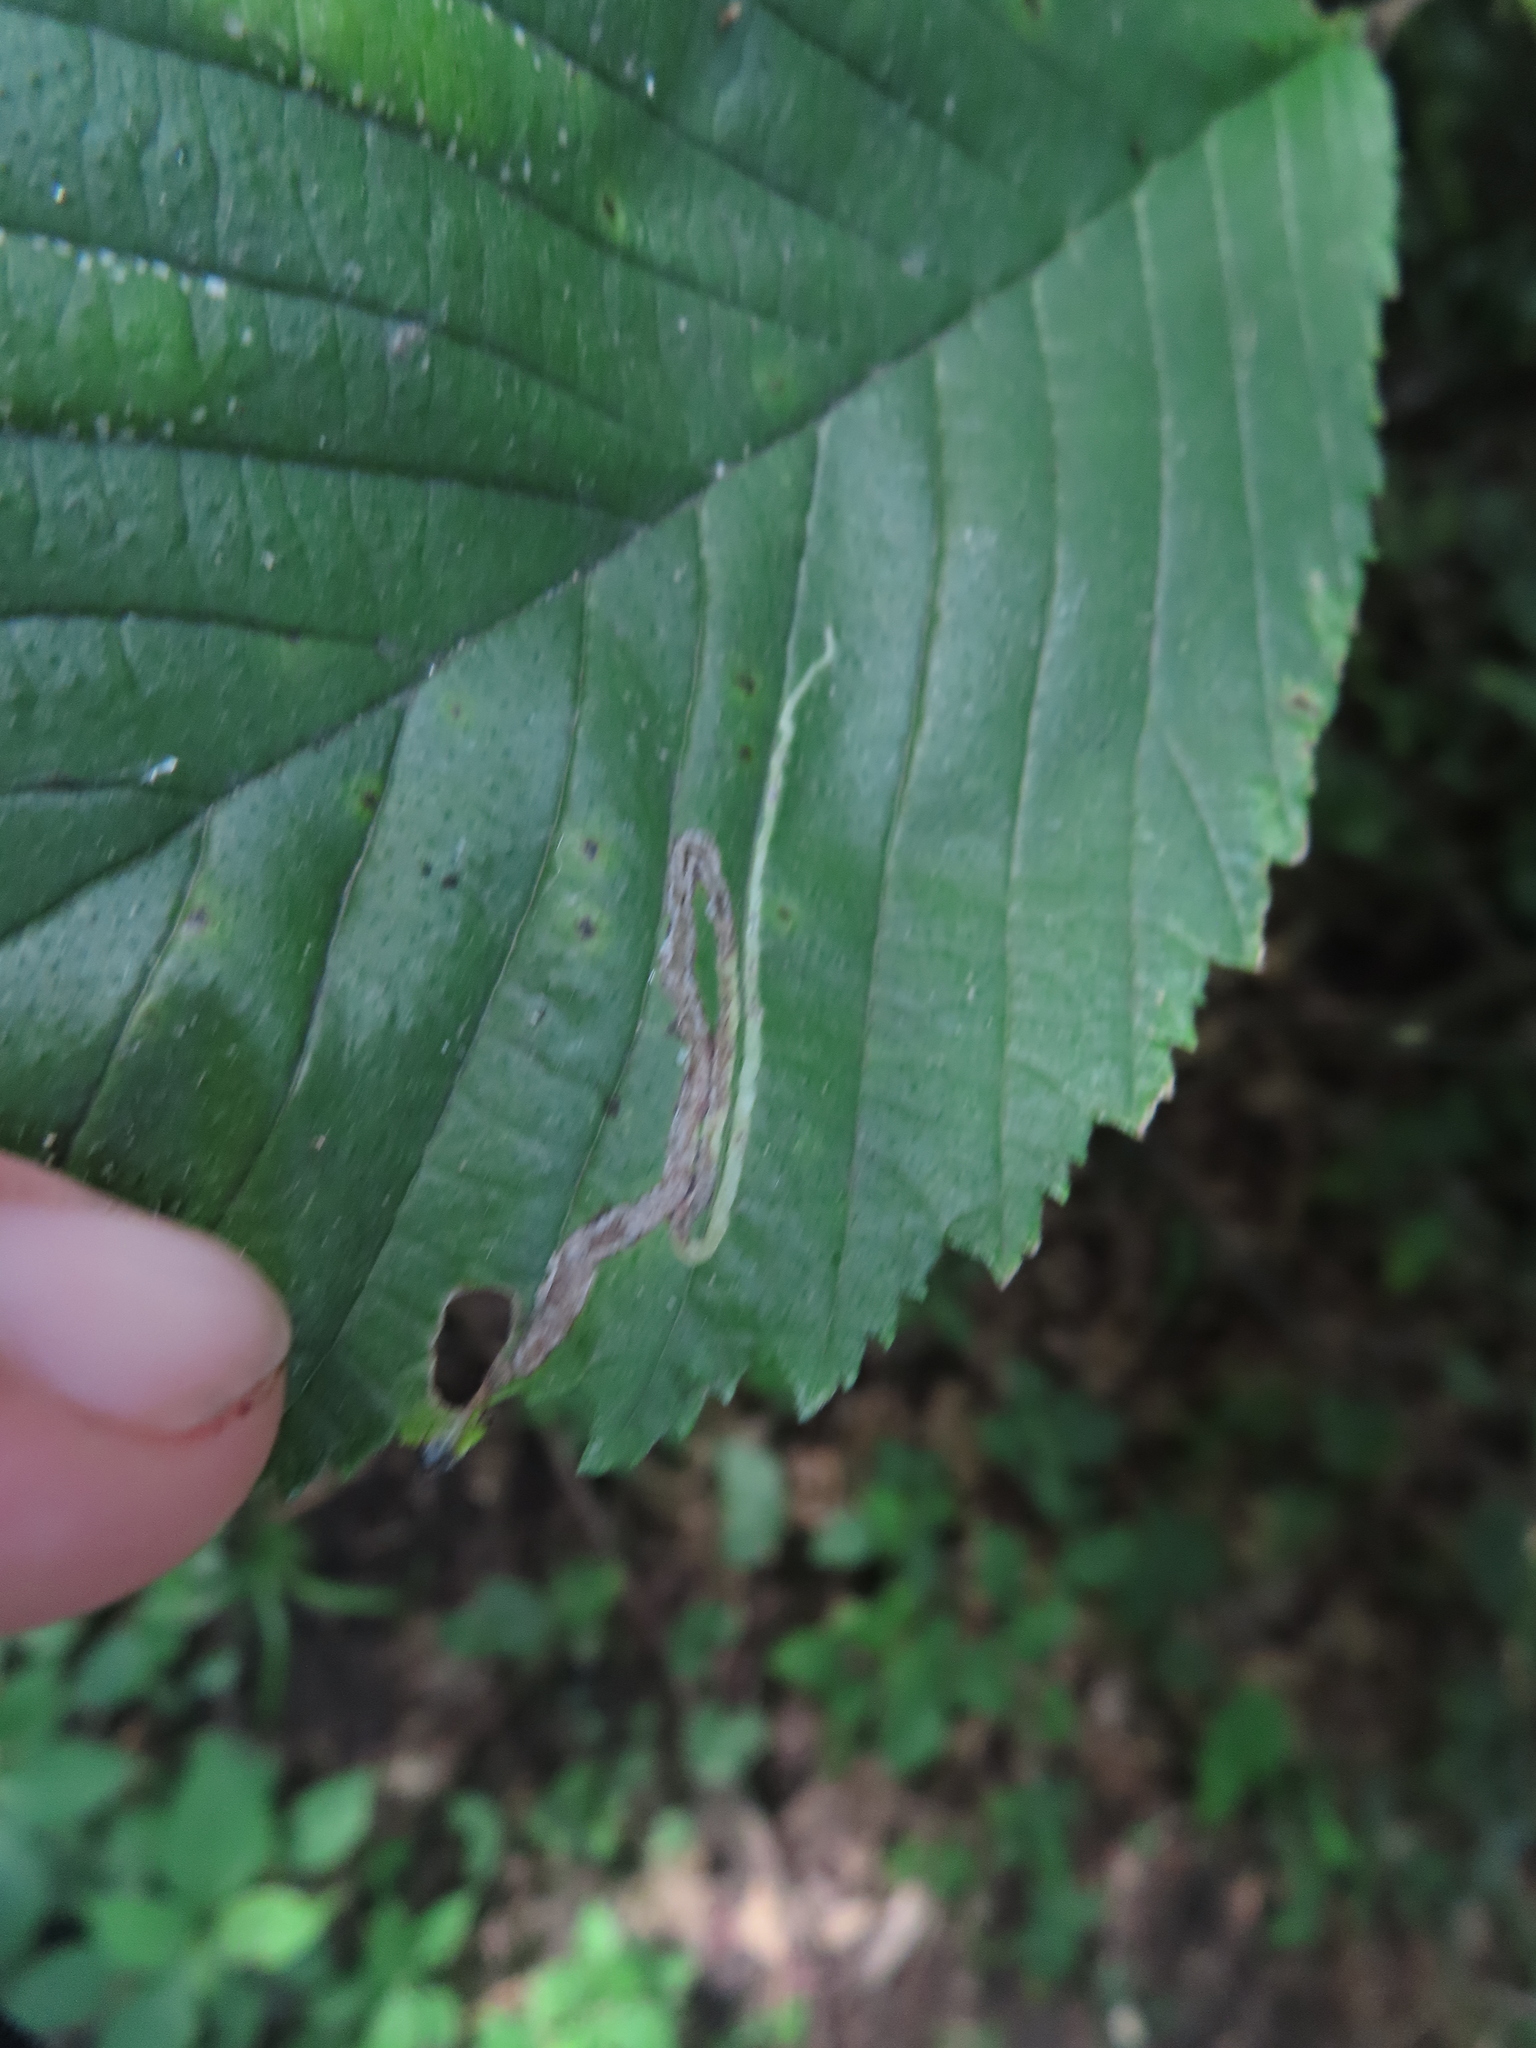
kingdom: Animalia
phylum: Arthropoda
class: Insecta
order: Diptera
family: Agromyzidae
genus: Agromyza
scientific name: Agromyza aristata
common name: Elm agromyzid leafminer
